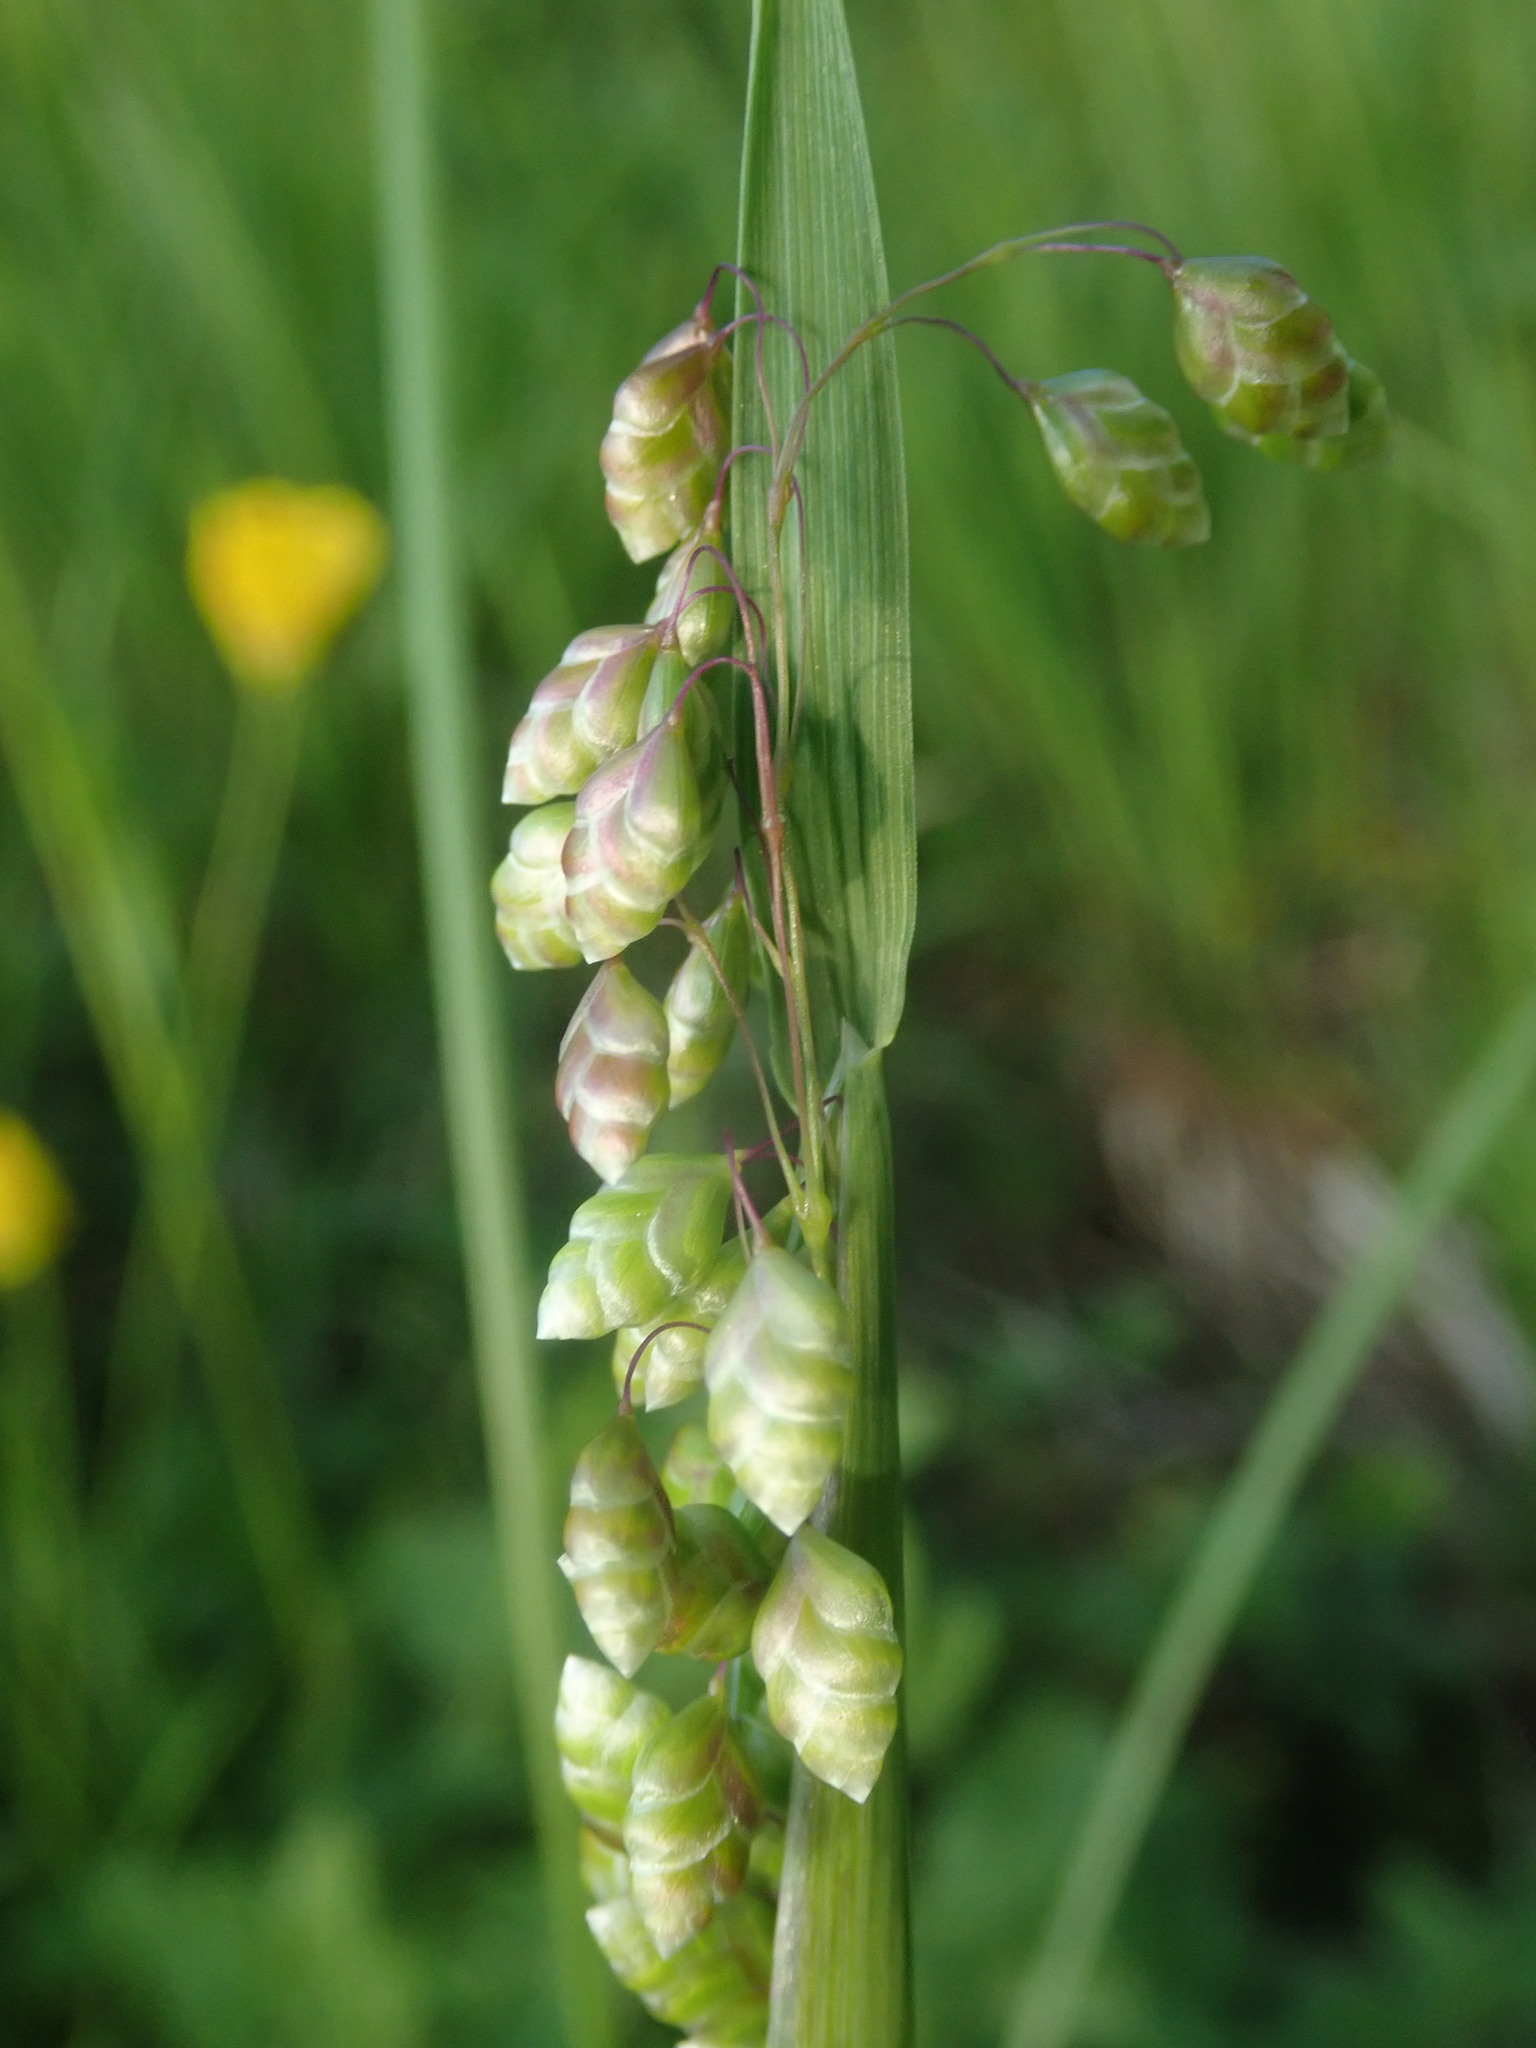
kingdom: Plantae
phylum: Tracheophyta
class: Liliopsida
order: Poales
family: Poaceae
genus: Briza
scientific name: Briza media
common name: Quaking grass
